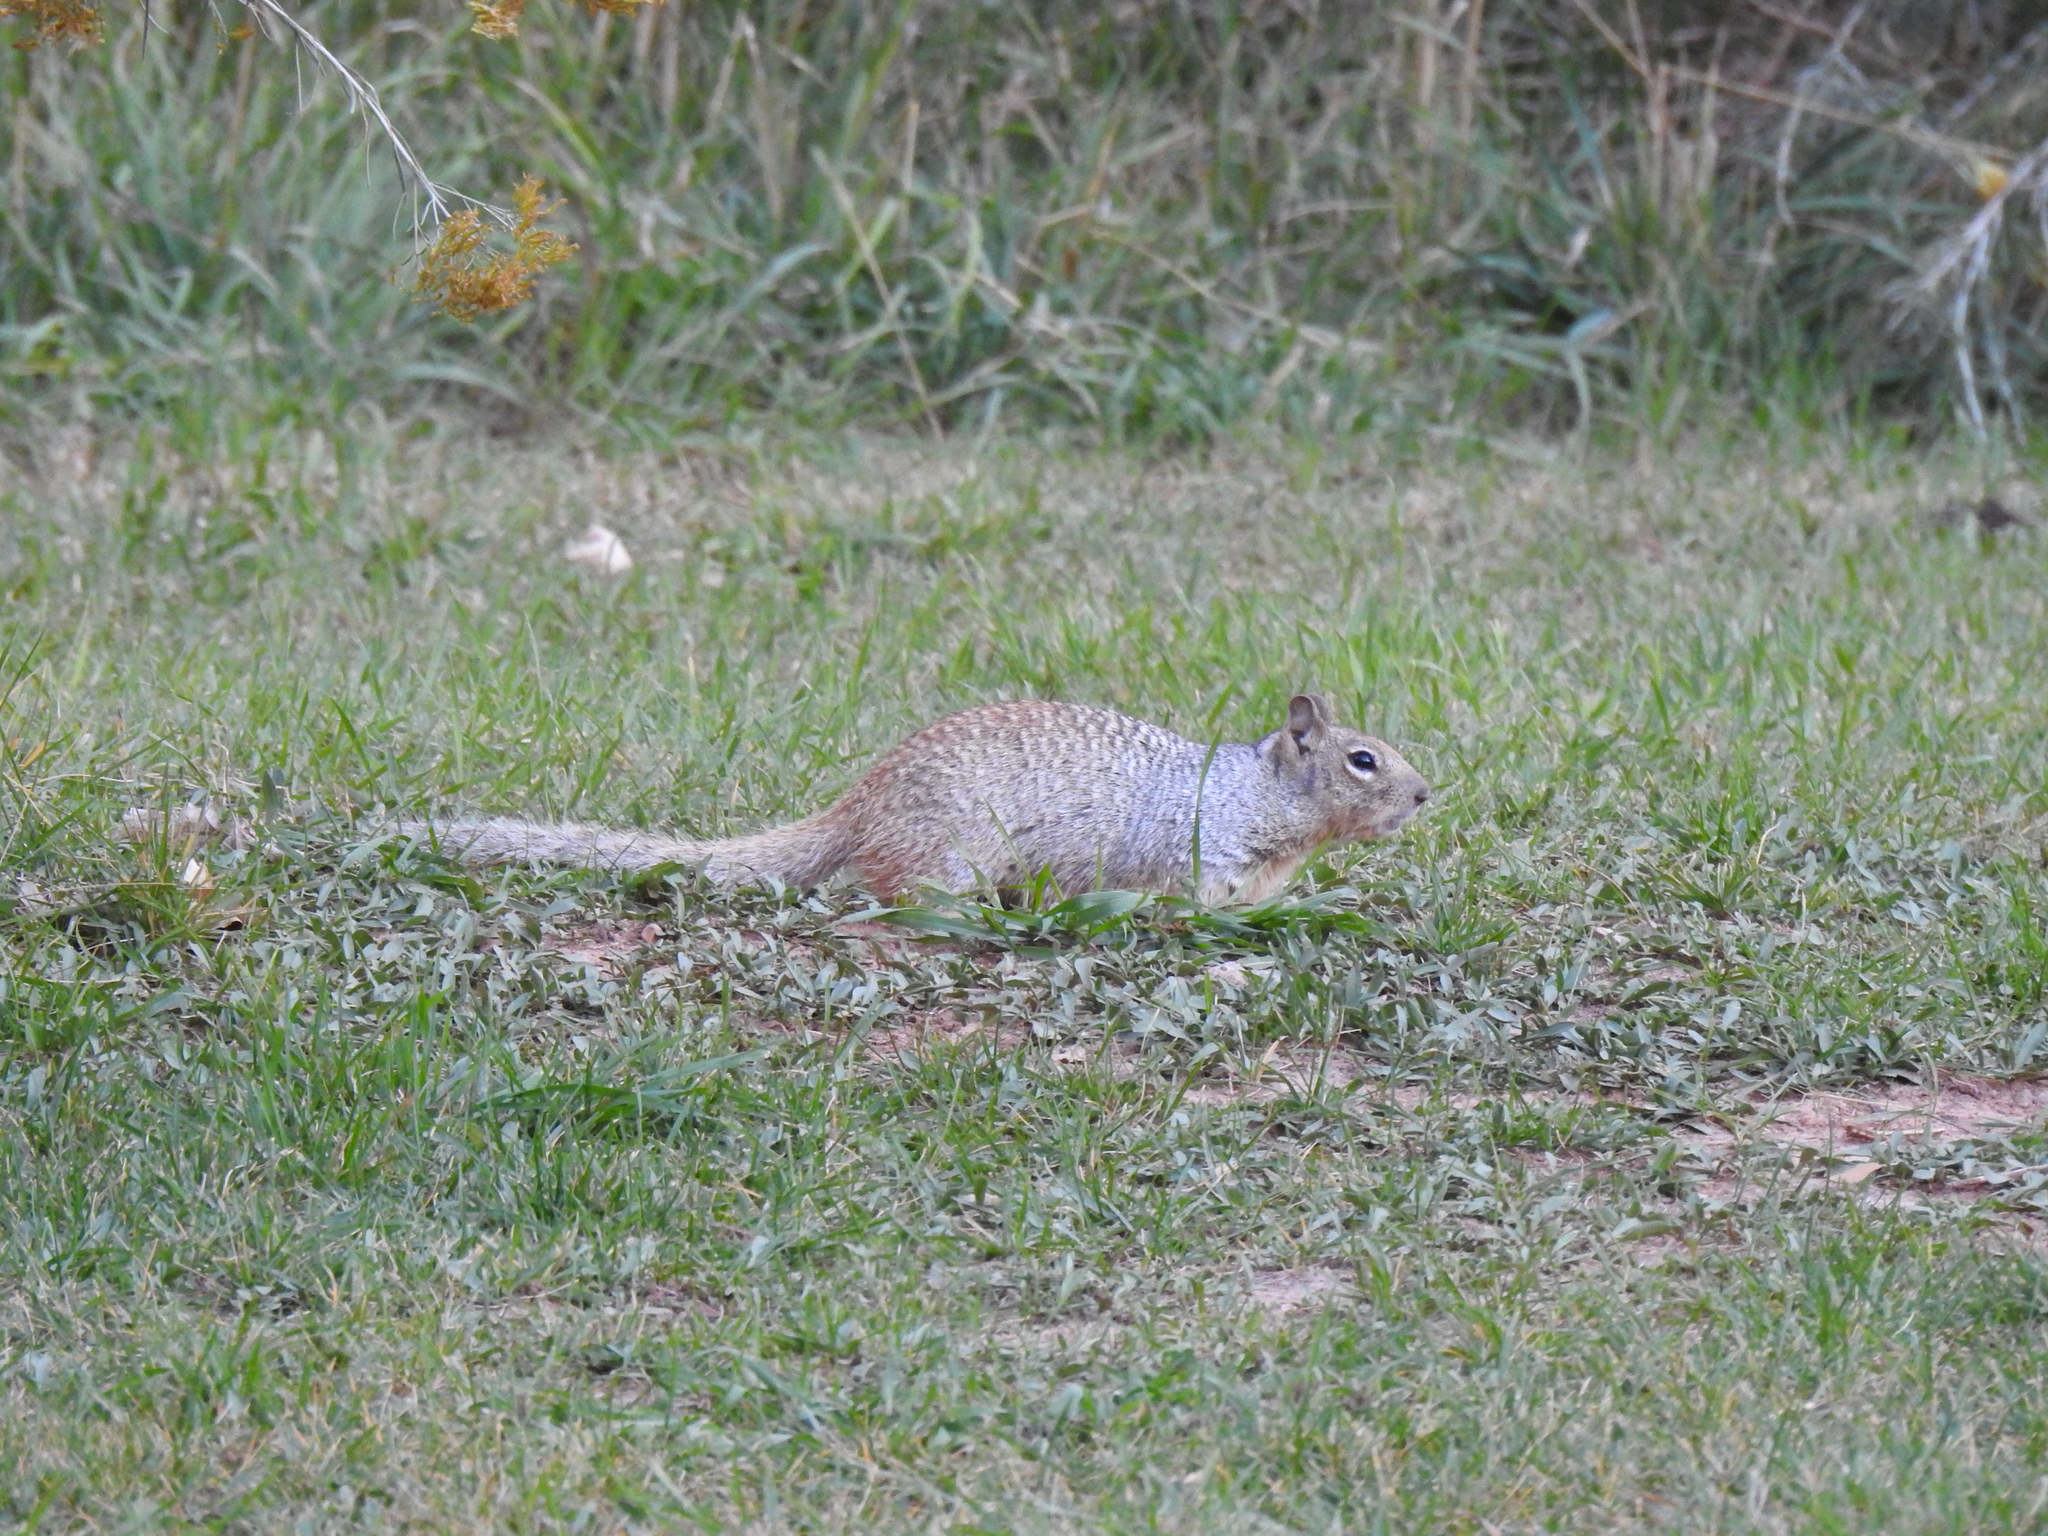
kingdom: Animalia
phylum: Chordata
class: Mammalia
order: Rodentia
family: Sciuridae
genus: Otospermophilus
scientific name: Otospermophilus variegatus
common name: Rock squirrel
